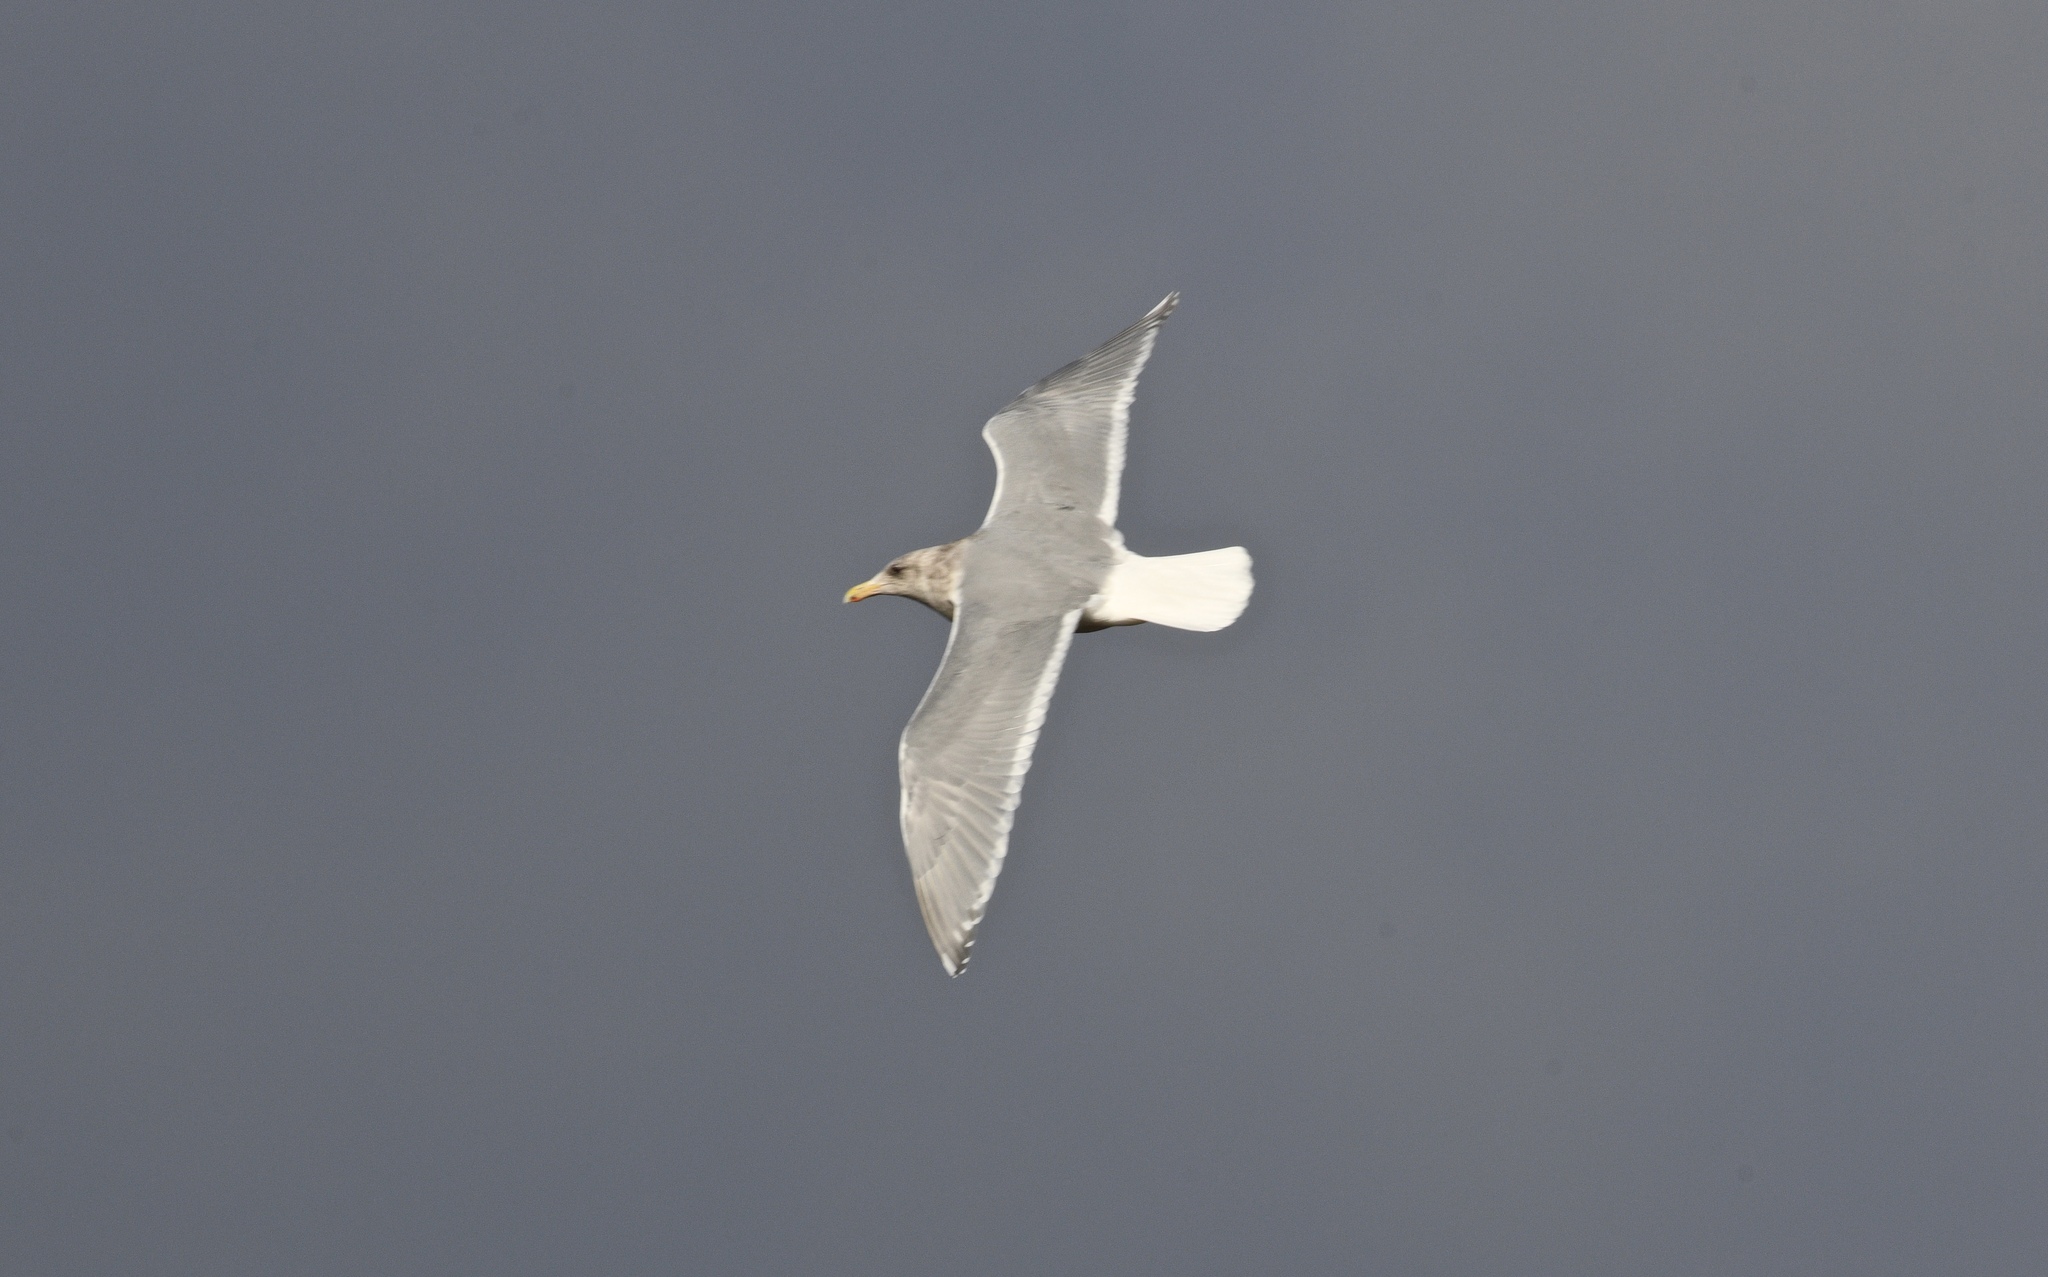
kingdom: Animalia
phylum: Chordata
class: Aves
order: Charadriiformes
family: Laridae
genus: Larus
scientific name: Larus glaucescens
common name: Glaucous-winged gull
